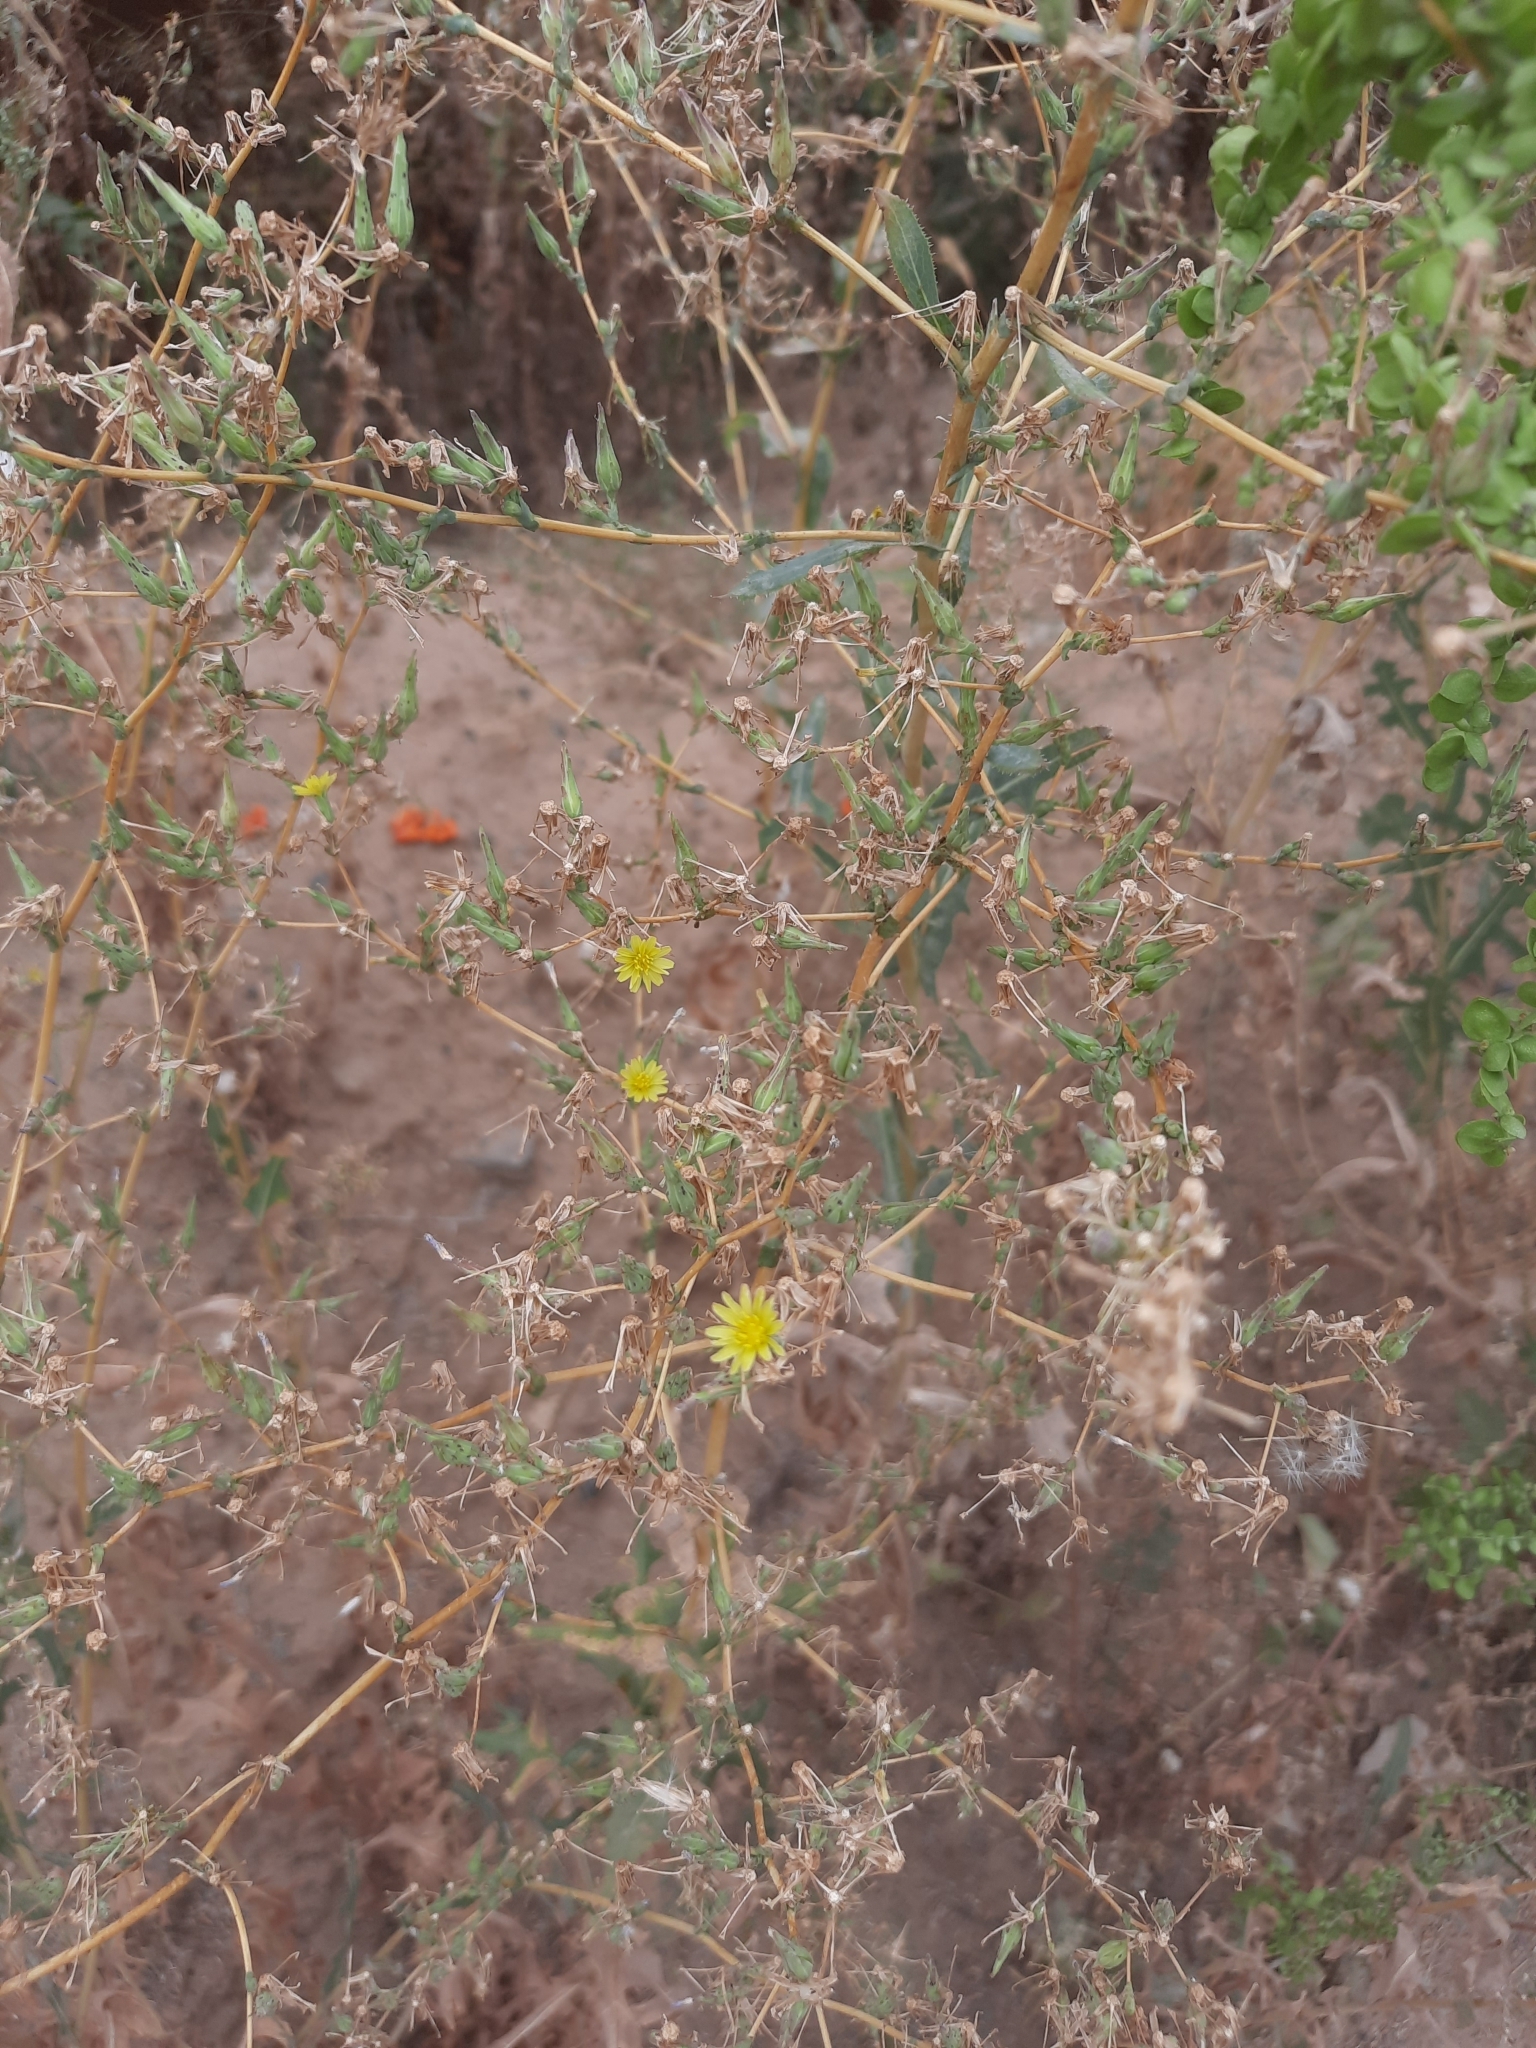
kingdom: Plantae
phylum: Tracheophyta
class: Magnoliopsida
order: Asterales
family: Asteraceae
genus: Lactuca
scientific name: Lactuca serriola
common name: Prickly lettuce
